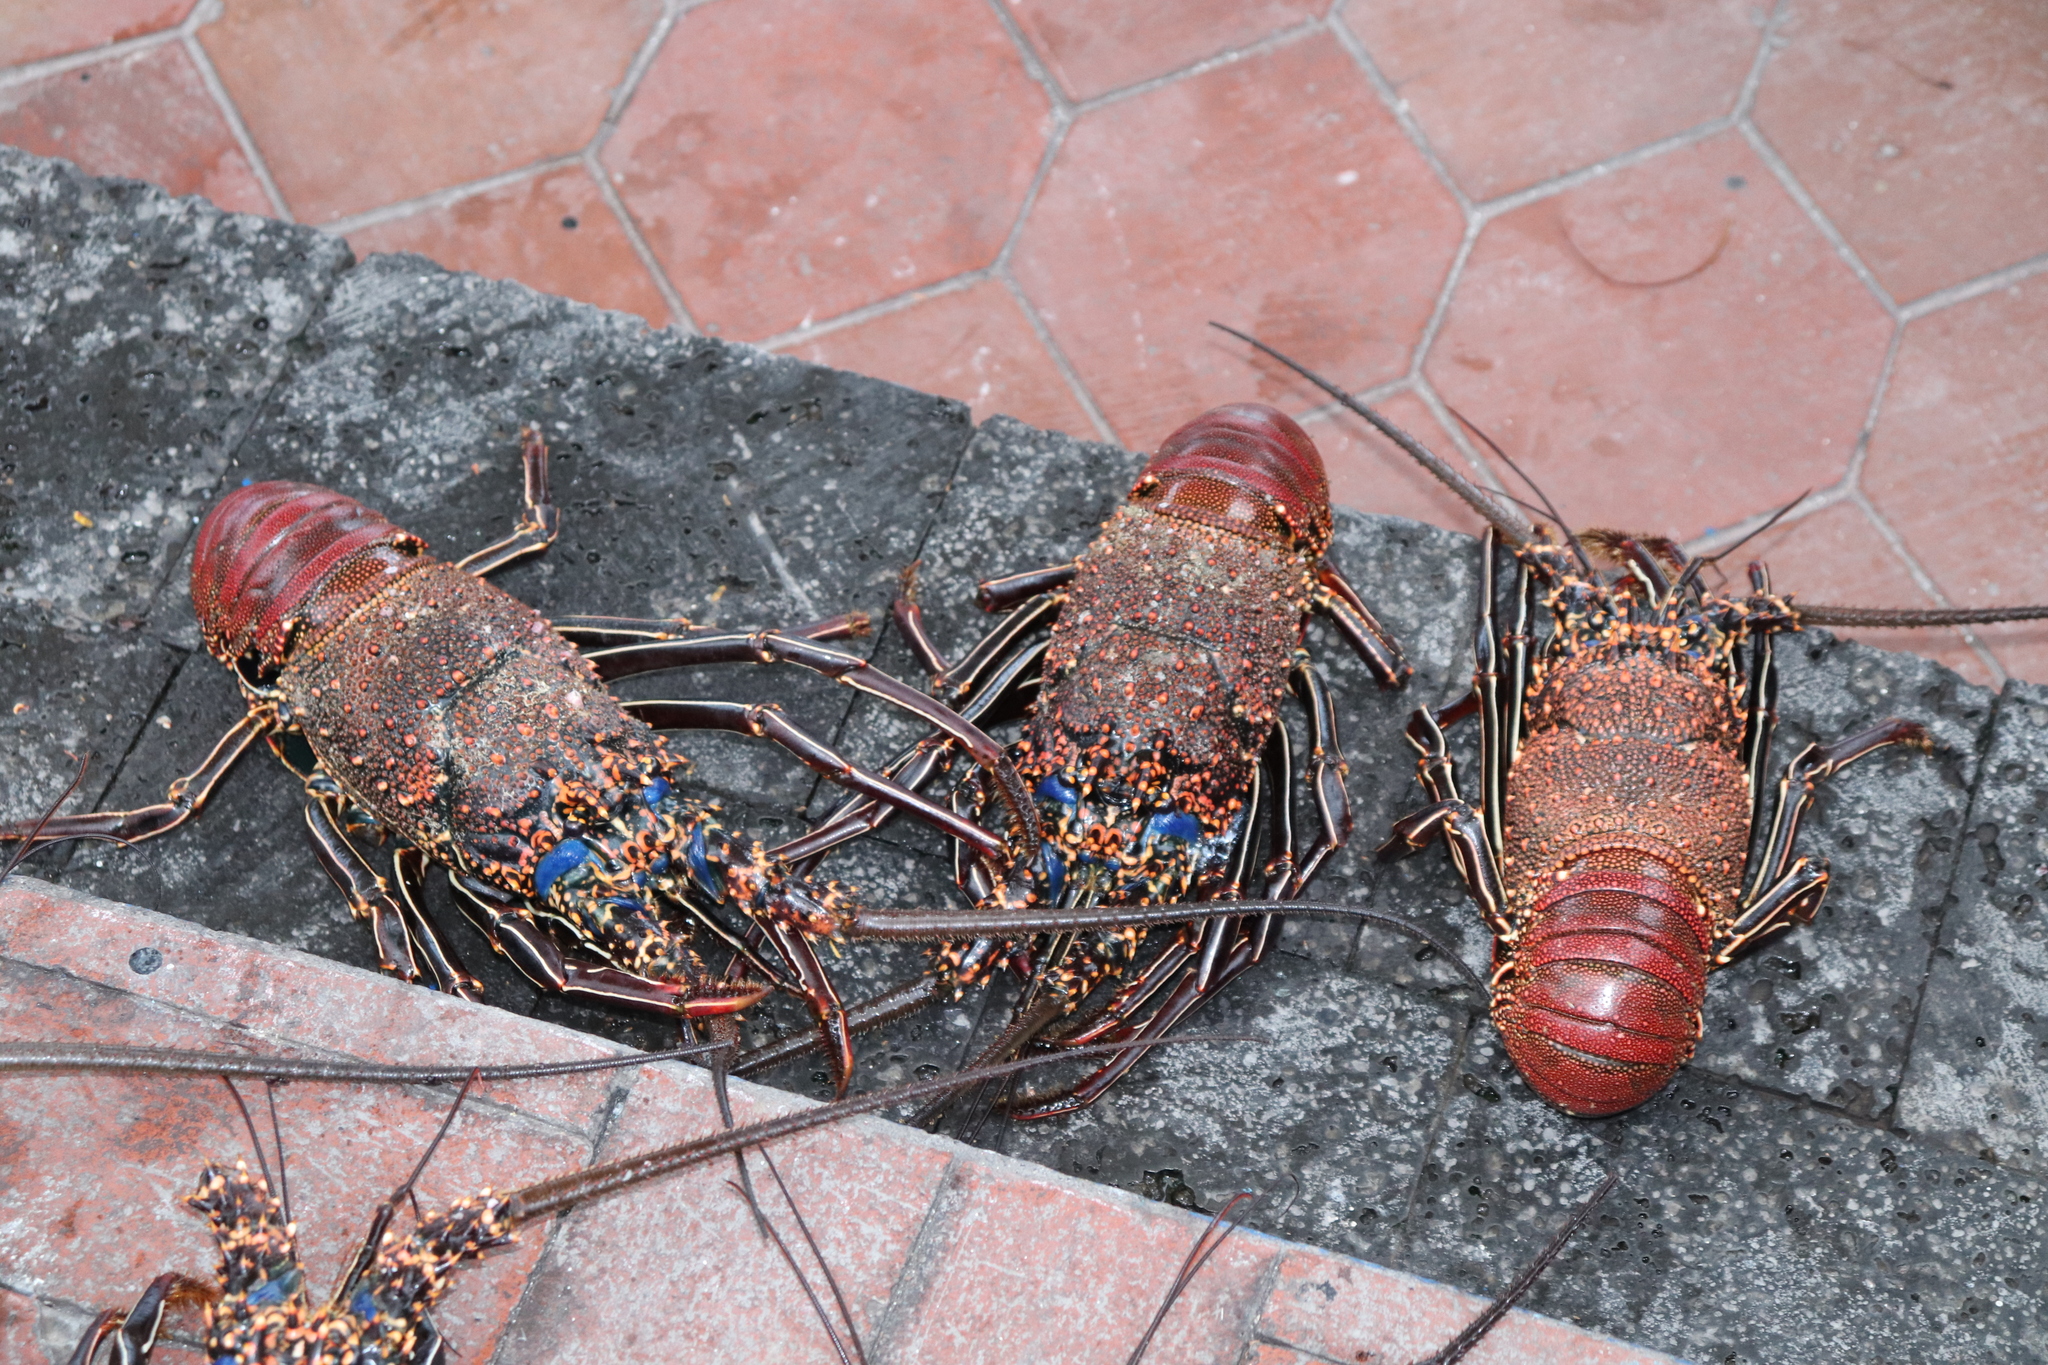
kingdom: Animalia
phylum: Arthropoda
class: Malacostraca
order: Decapoda
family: Palinuridae
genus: Panulirus
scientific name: Panulirus penicillatus
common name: Pronghorn spiny lobster
